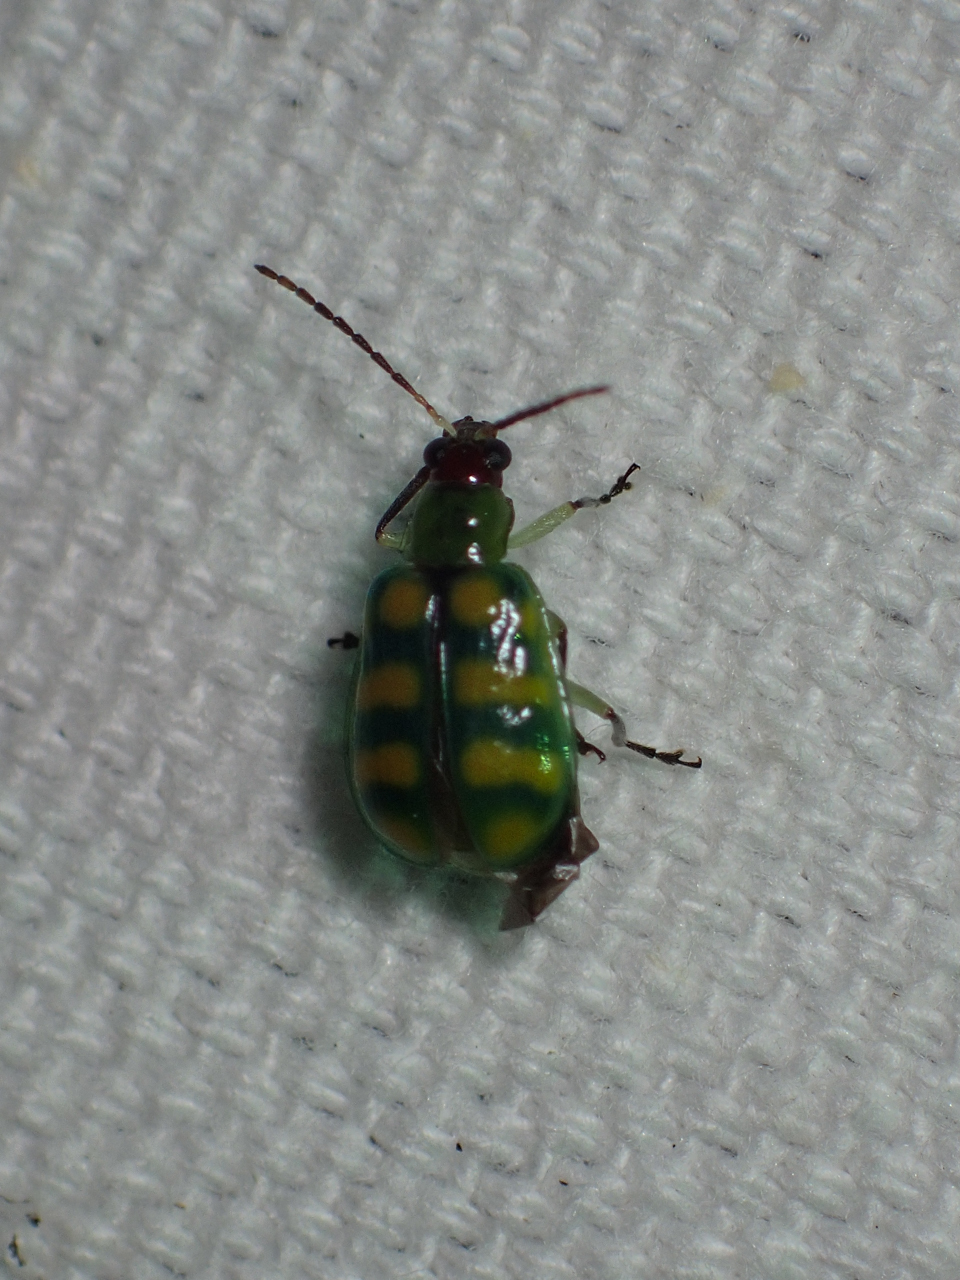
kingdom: Animalia
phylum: Arthropoda
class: Insecta
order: Coleoptera
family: Chrysomelidae
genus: Diabrotica
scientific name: Diabrotica balteata
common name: Leaf beetle
